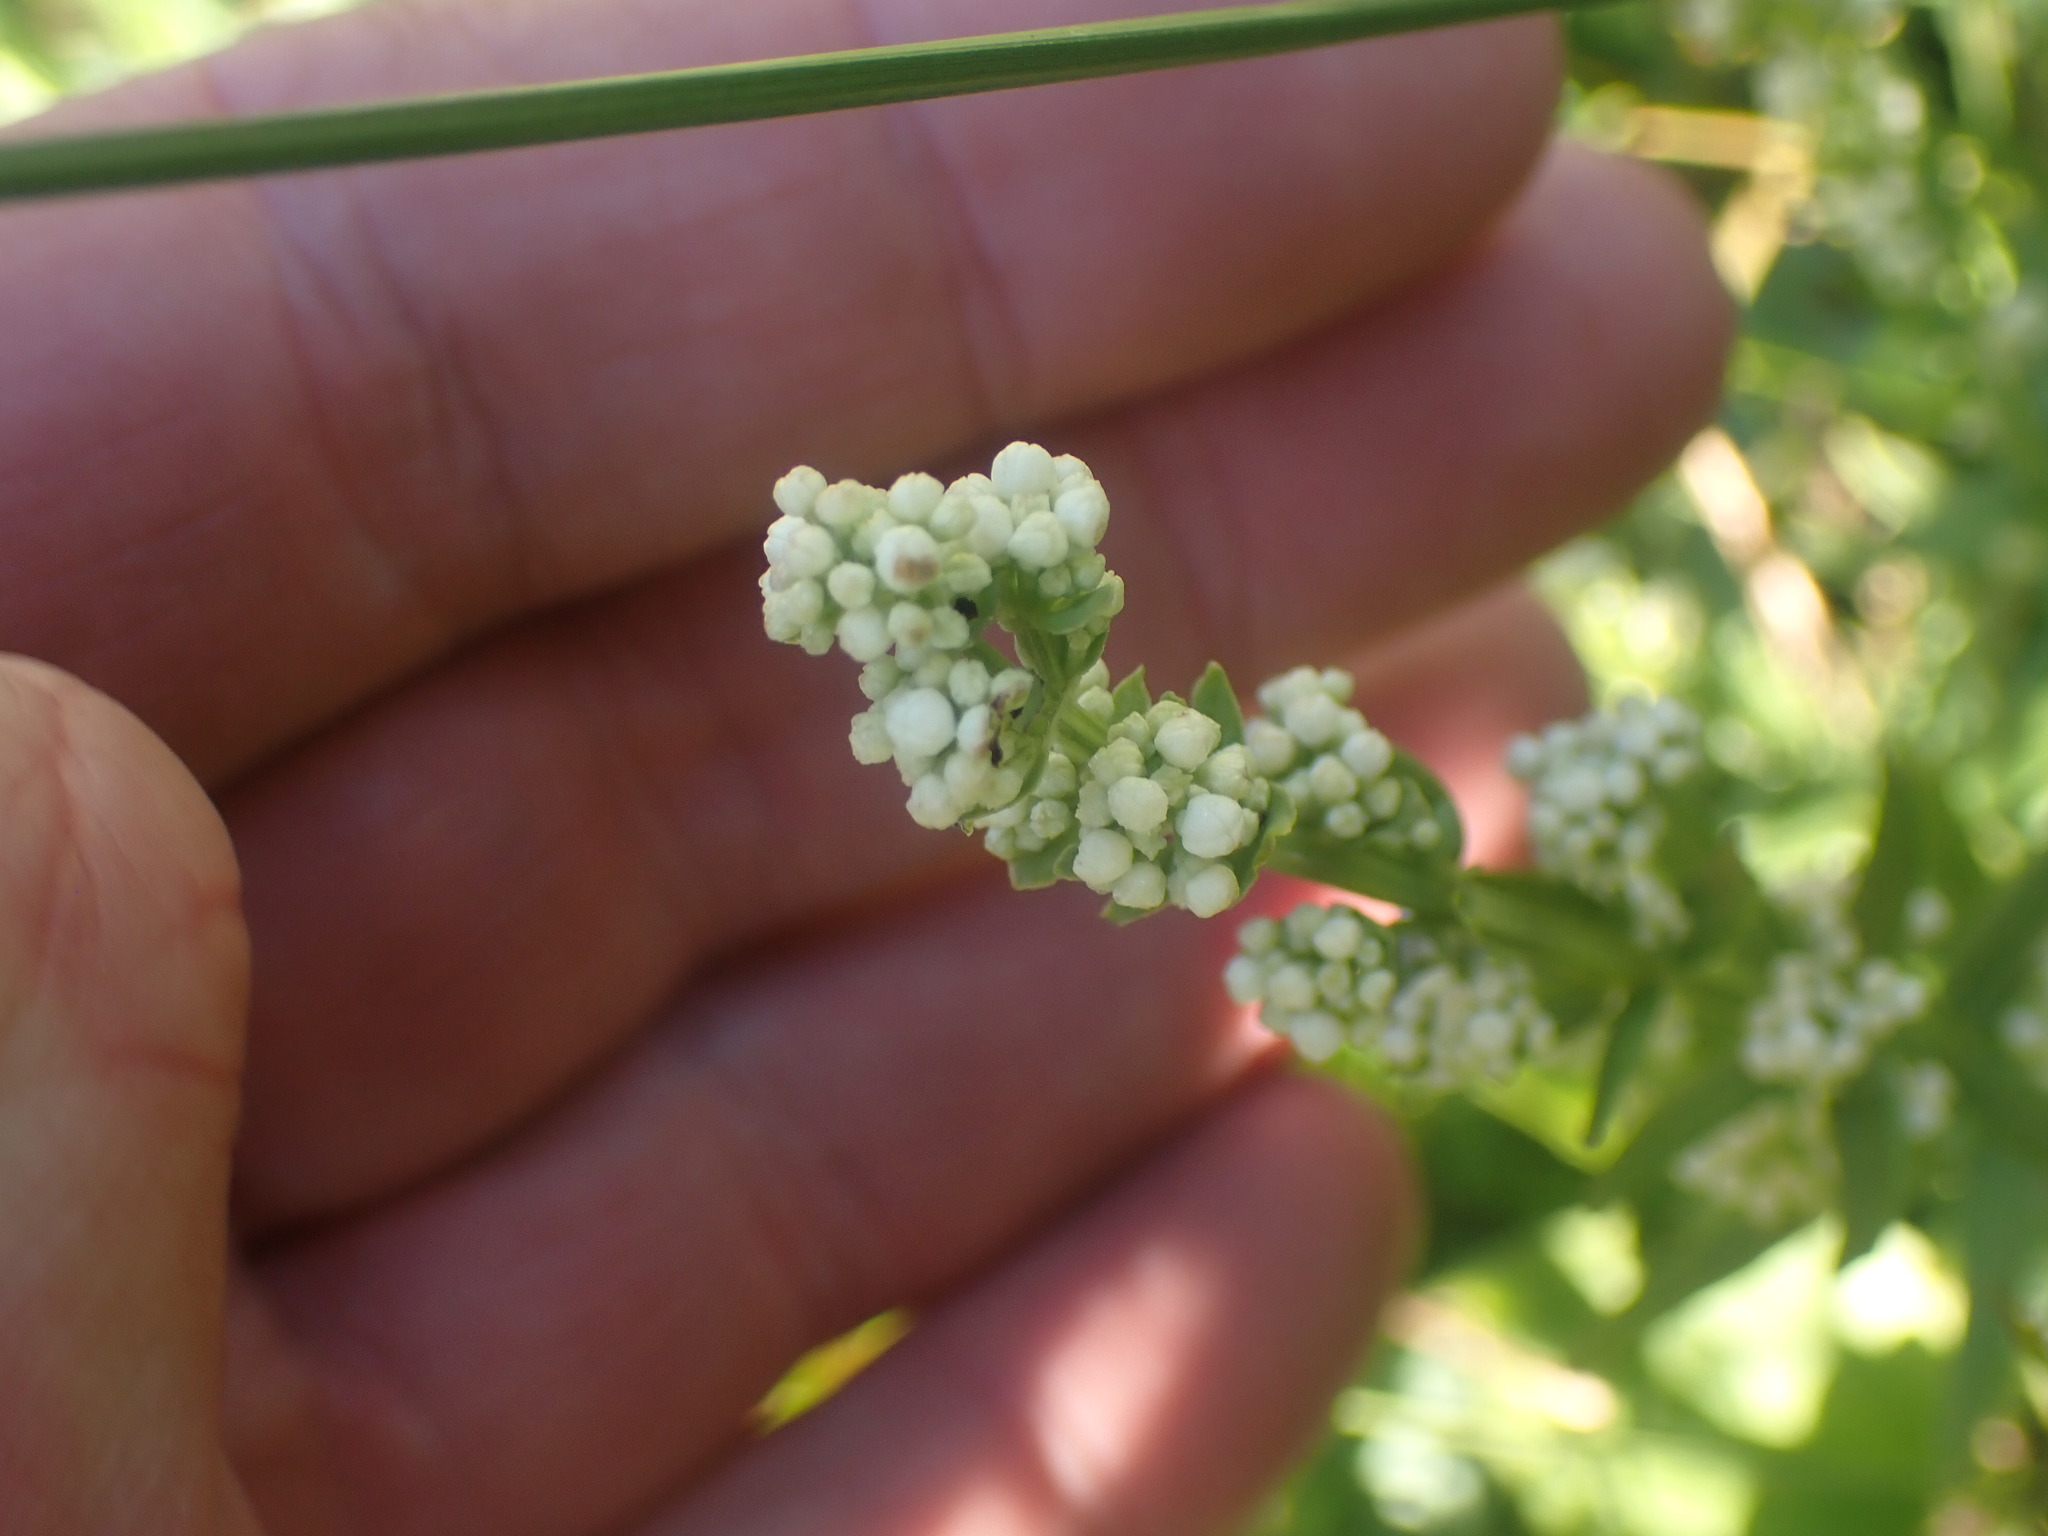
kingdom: Plantae
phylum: Tracheophyta
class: Magnoliopsida
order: Gentianales
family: Rubiaceae
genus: Galium
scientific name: Galium boreale
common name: Northern bedstraw
